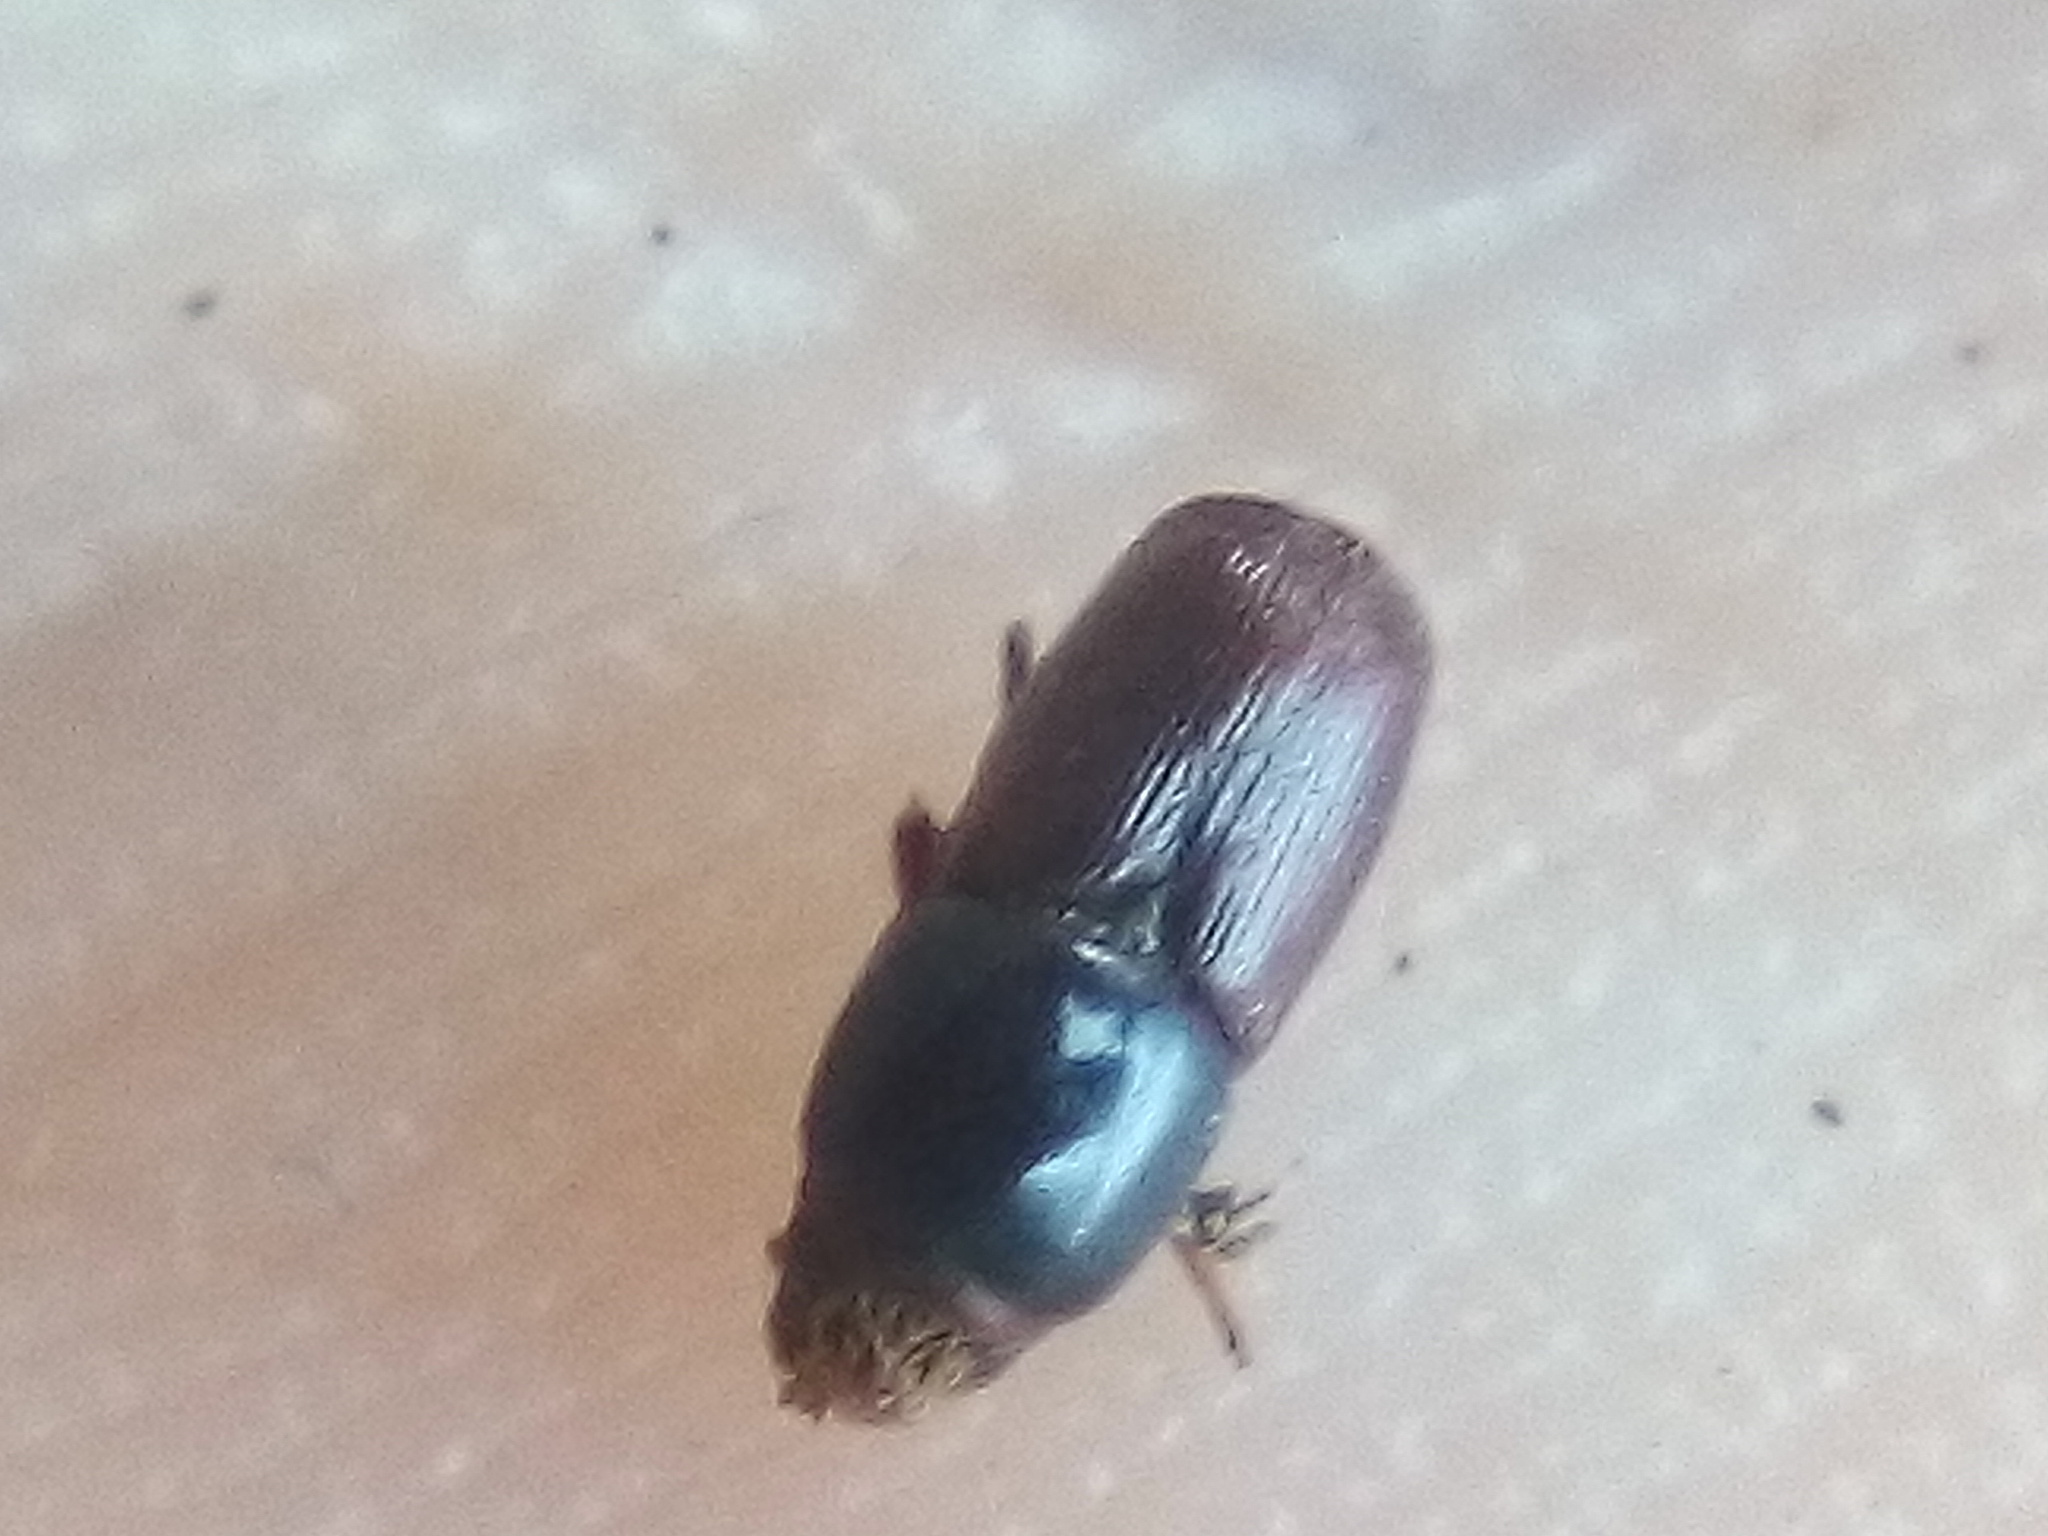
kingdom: Animalia
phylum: Arthropoda
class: Insecta
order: Coleoptera
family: Curculionidae
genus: Scolytus
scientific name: Scolytus multistriatus
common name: European elm bark beetle
